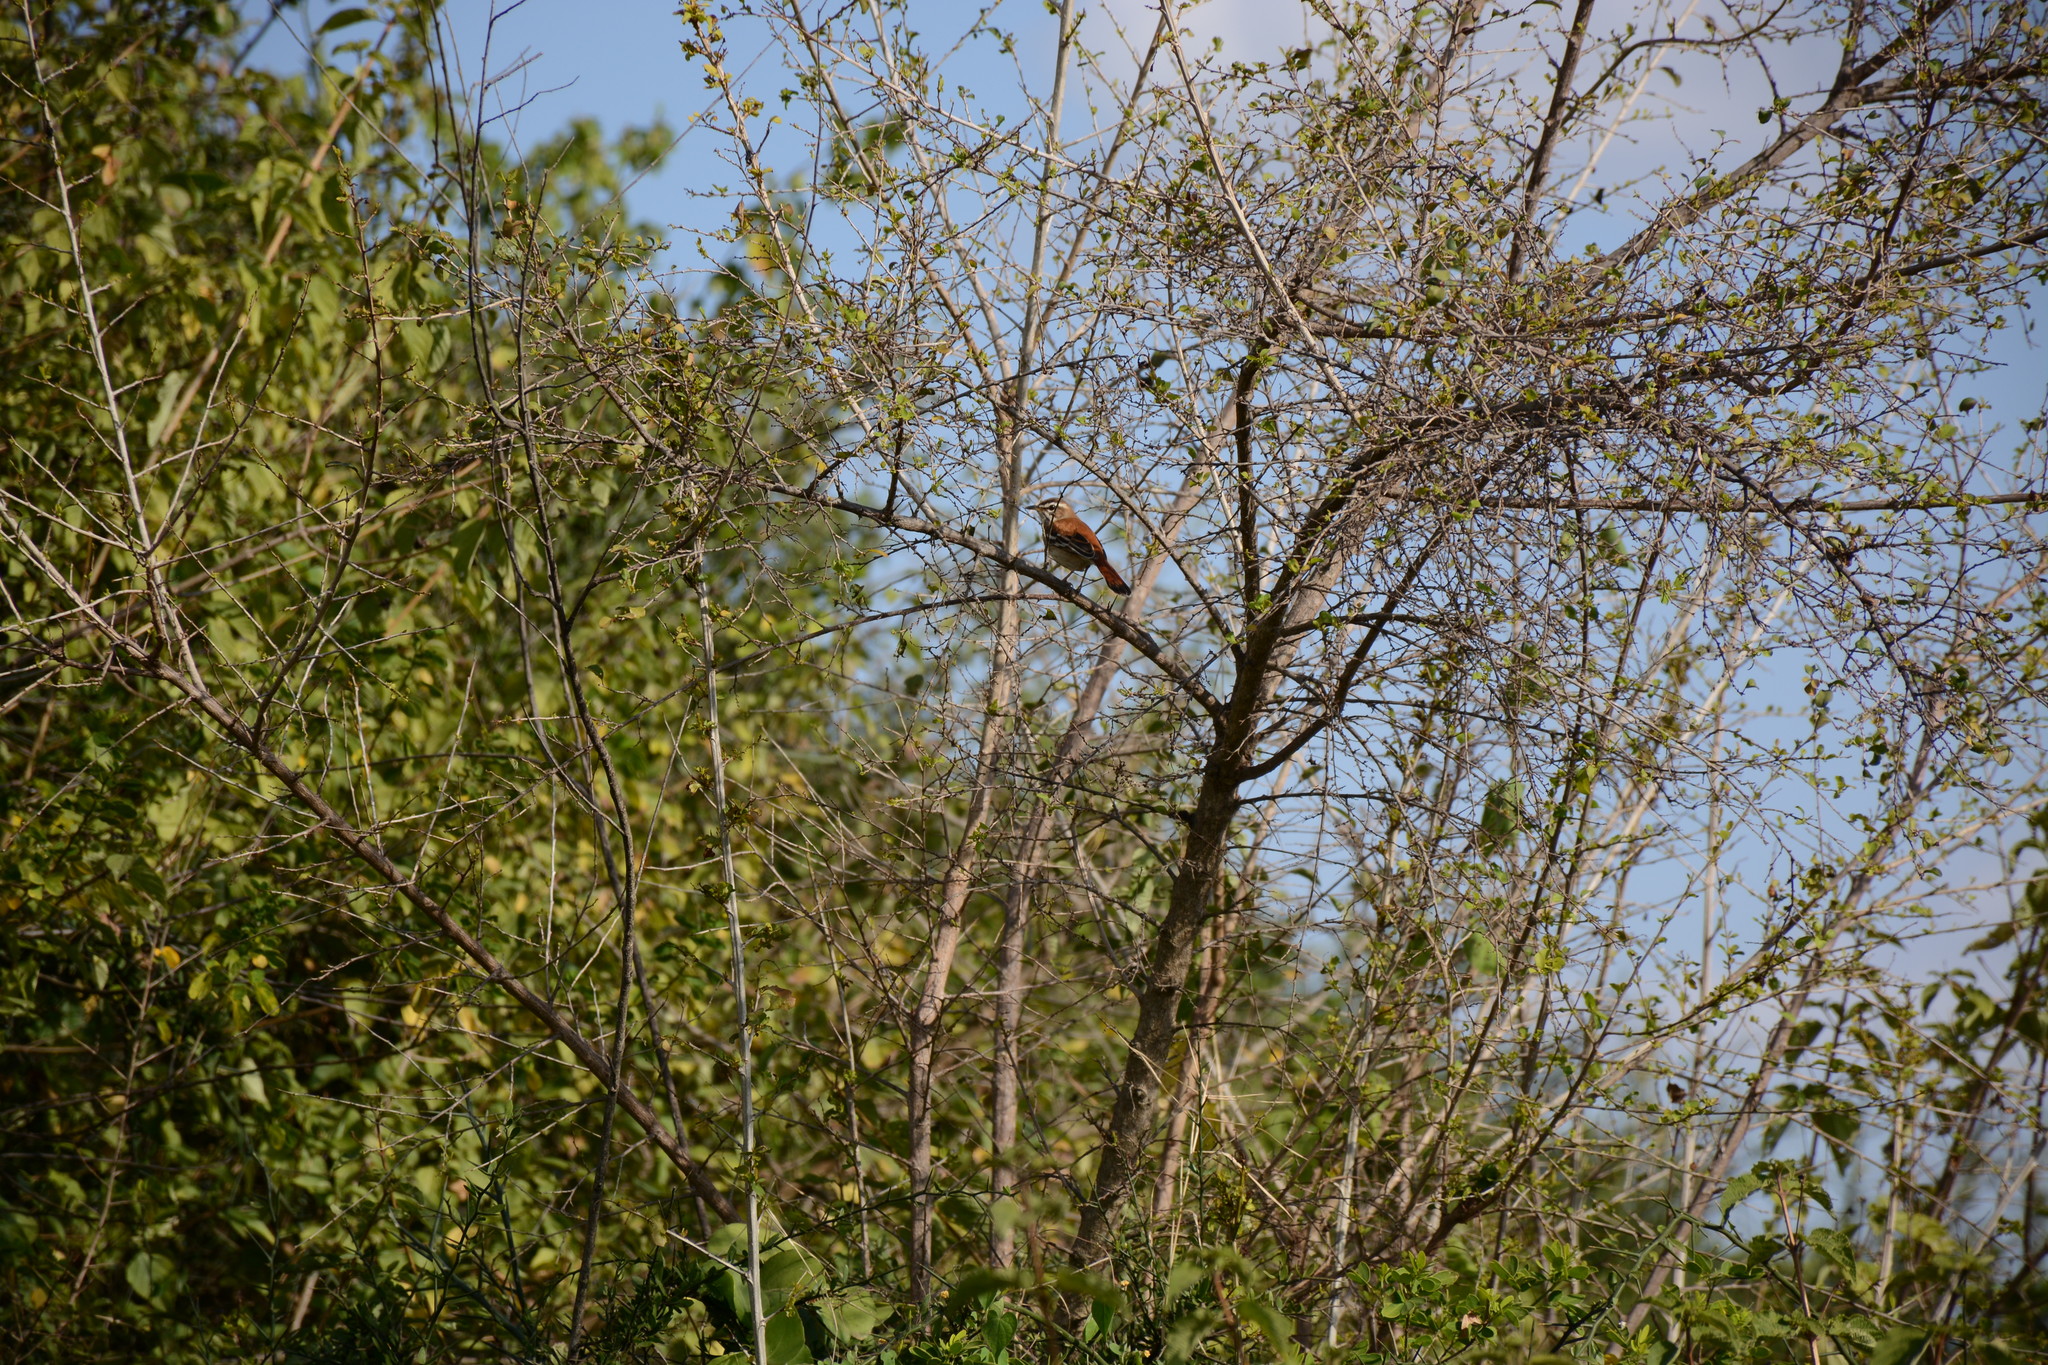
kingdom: Animalia
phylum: Chordata
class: Aves
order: Passeriformes
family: Muscicapidae
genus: Erythropygia
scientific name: Erythropygia leucophrys
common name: White-browed scrub robin
